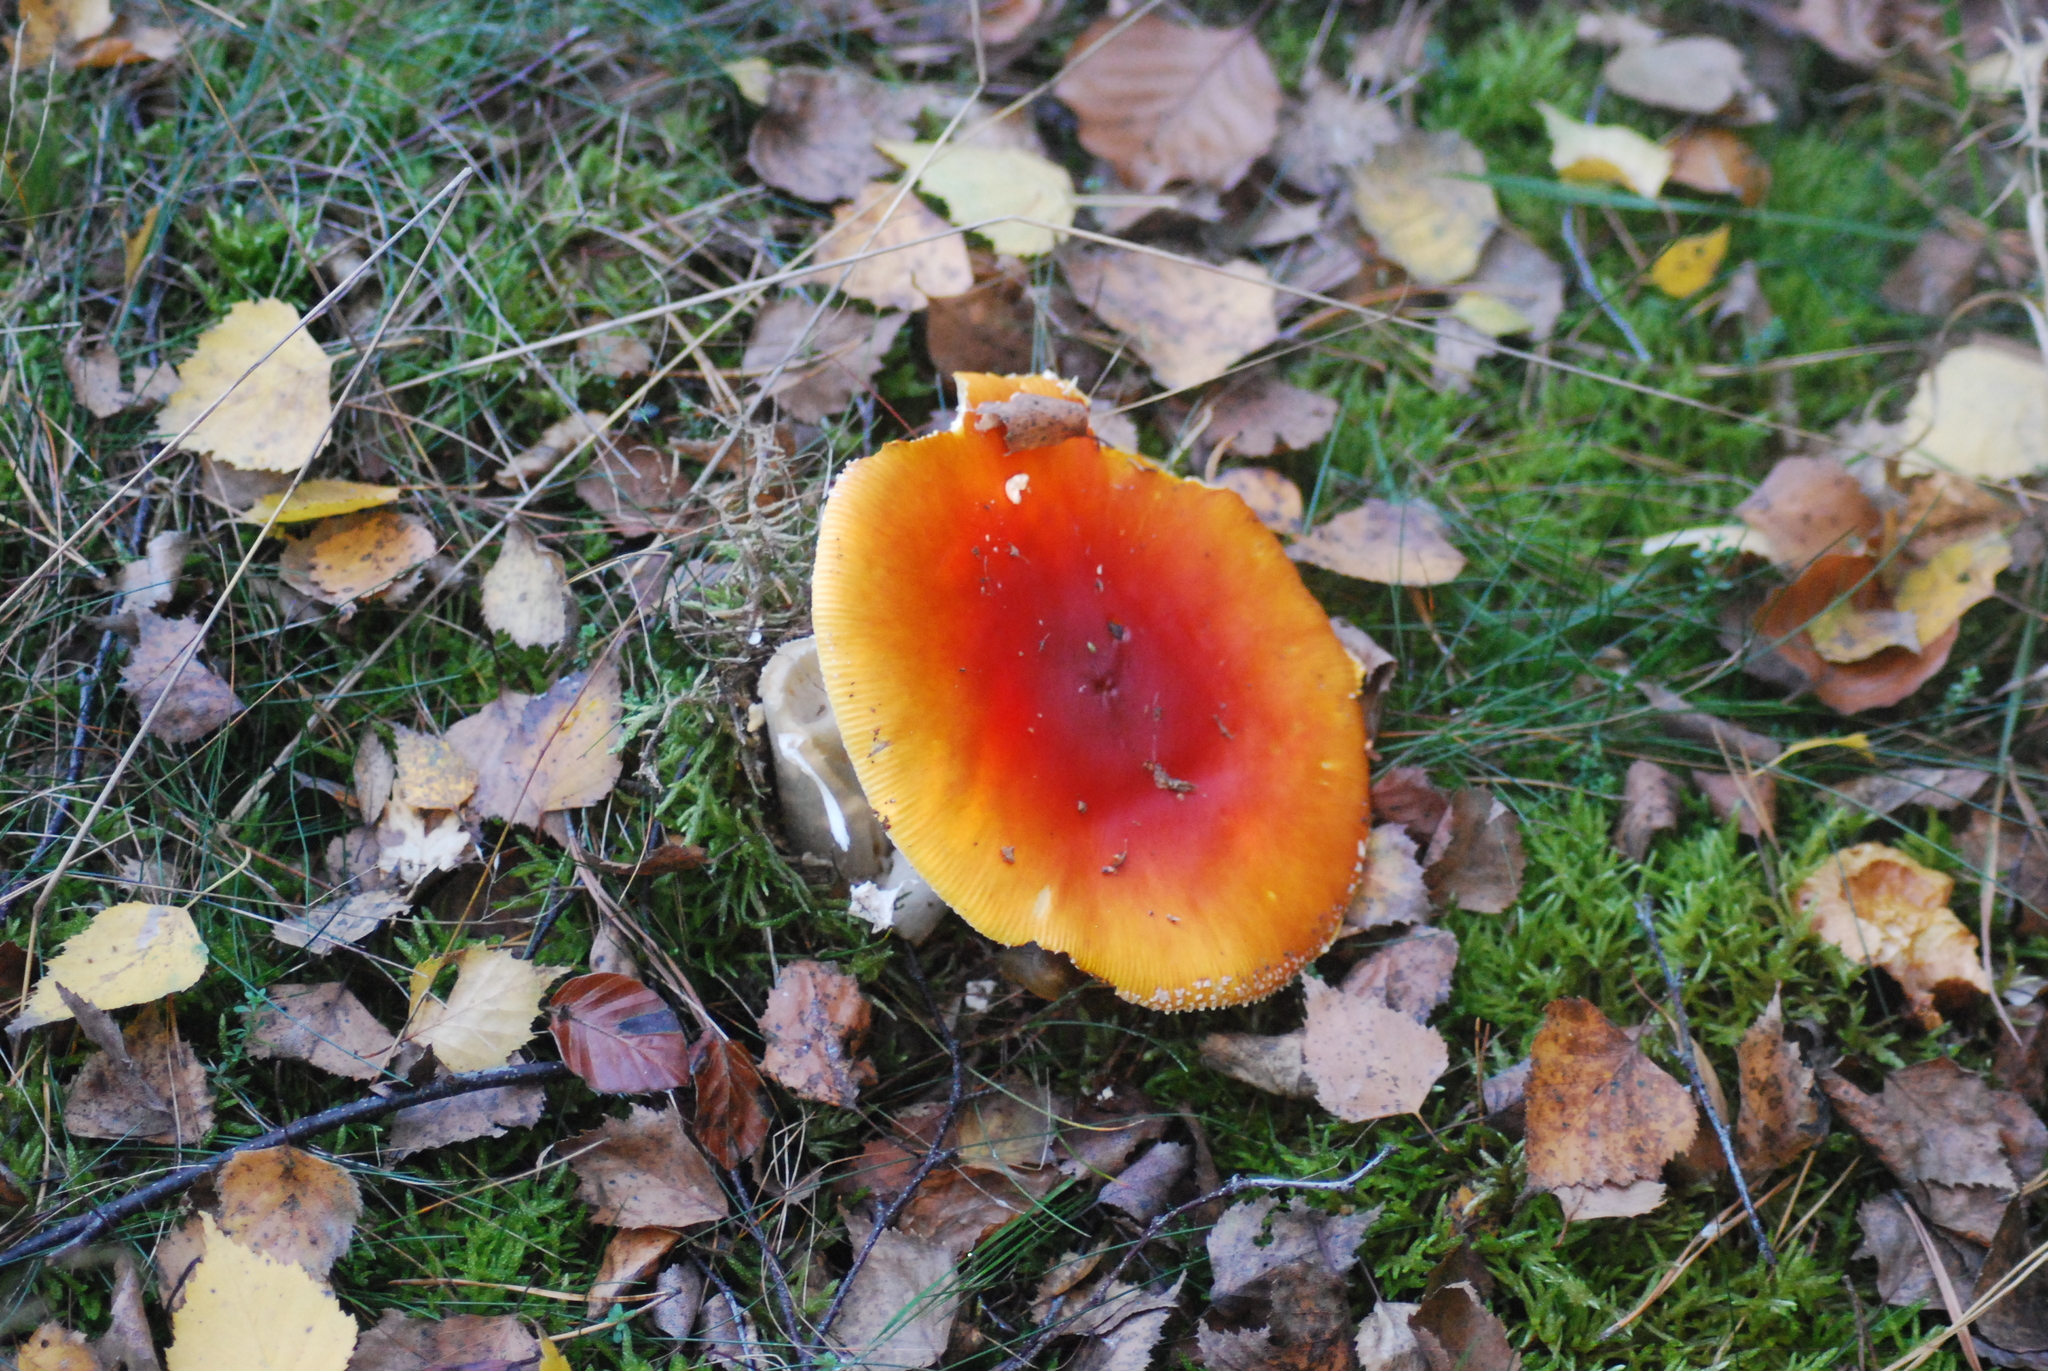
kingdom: Fungi
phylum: Basidiomycota
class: Agaricomycetes
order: Agaricales
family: Amanitaceae
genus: Amanita
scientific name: Amanita muscaria
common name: Fly agaric
